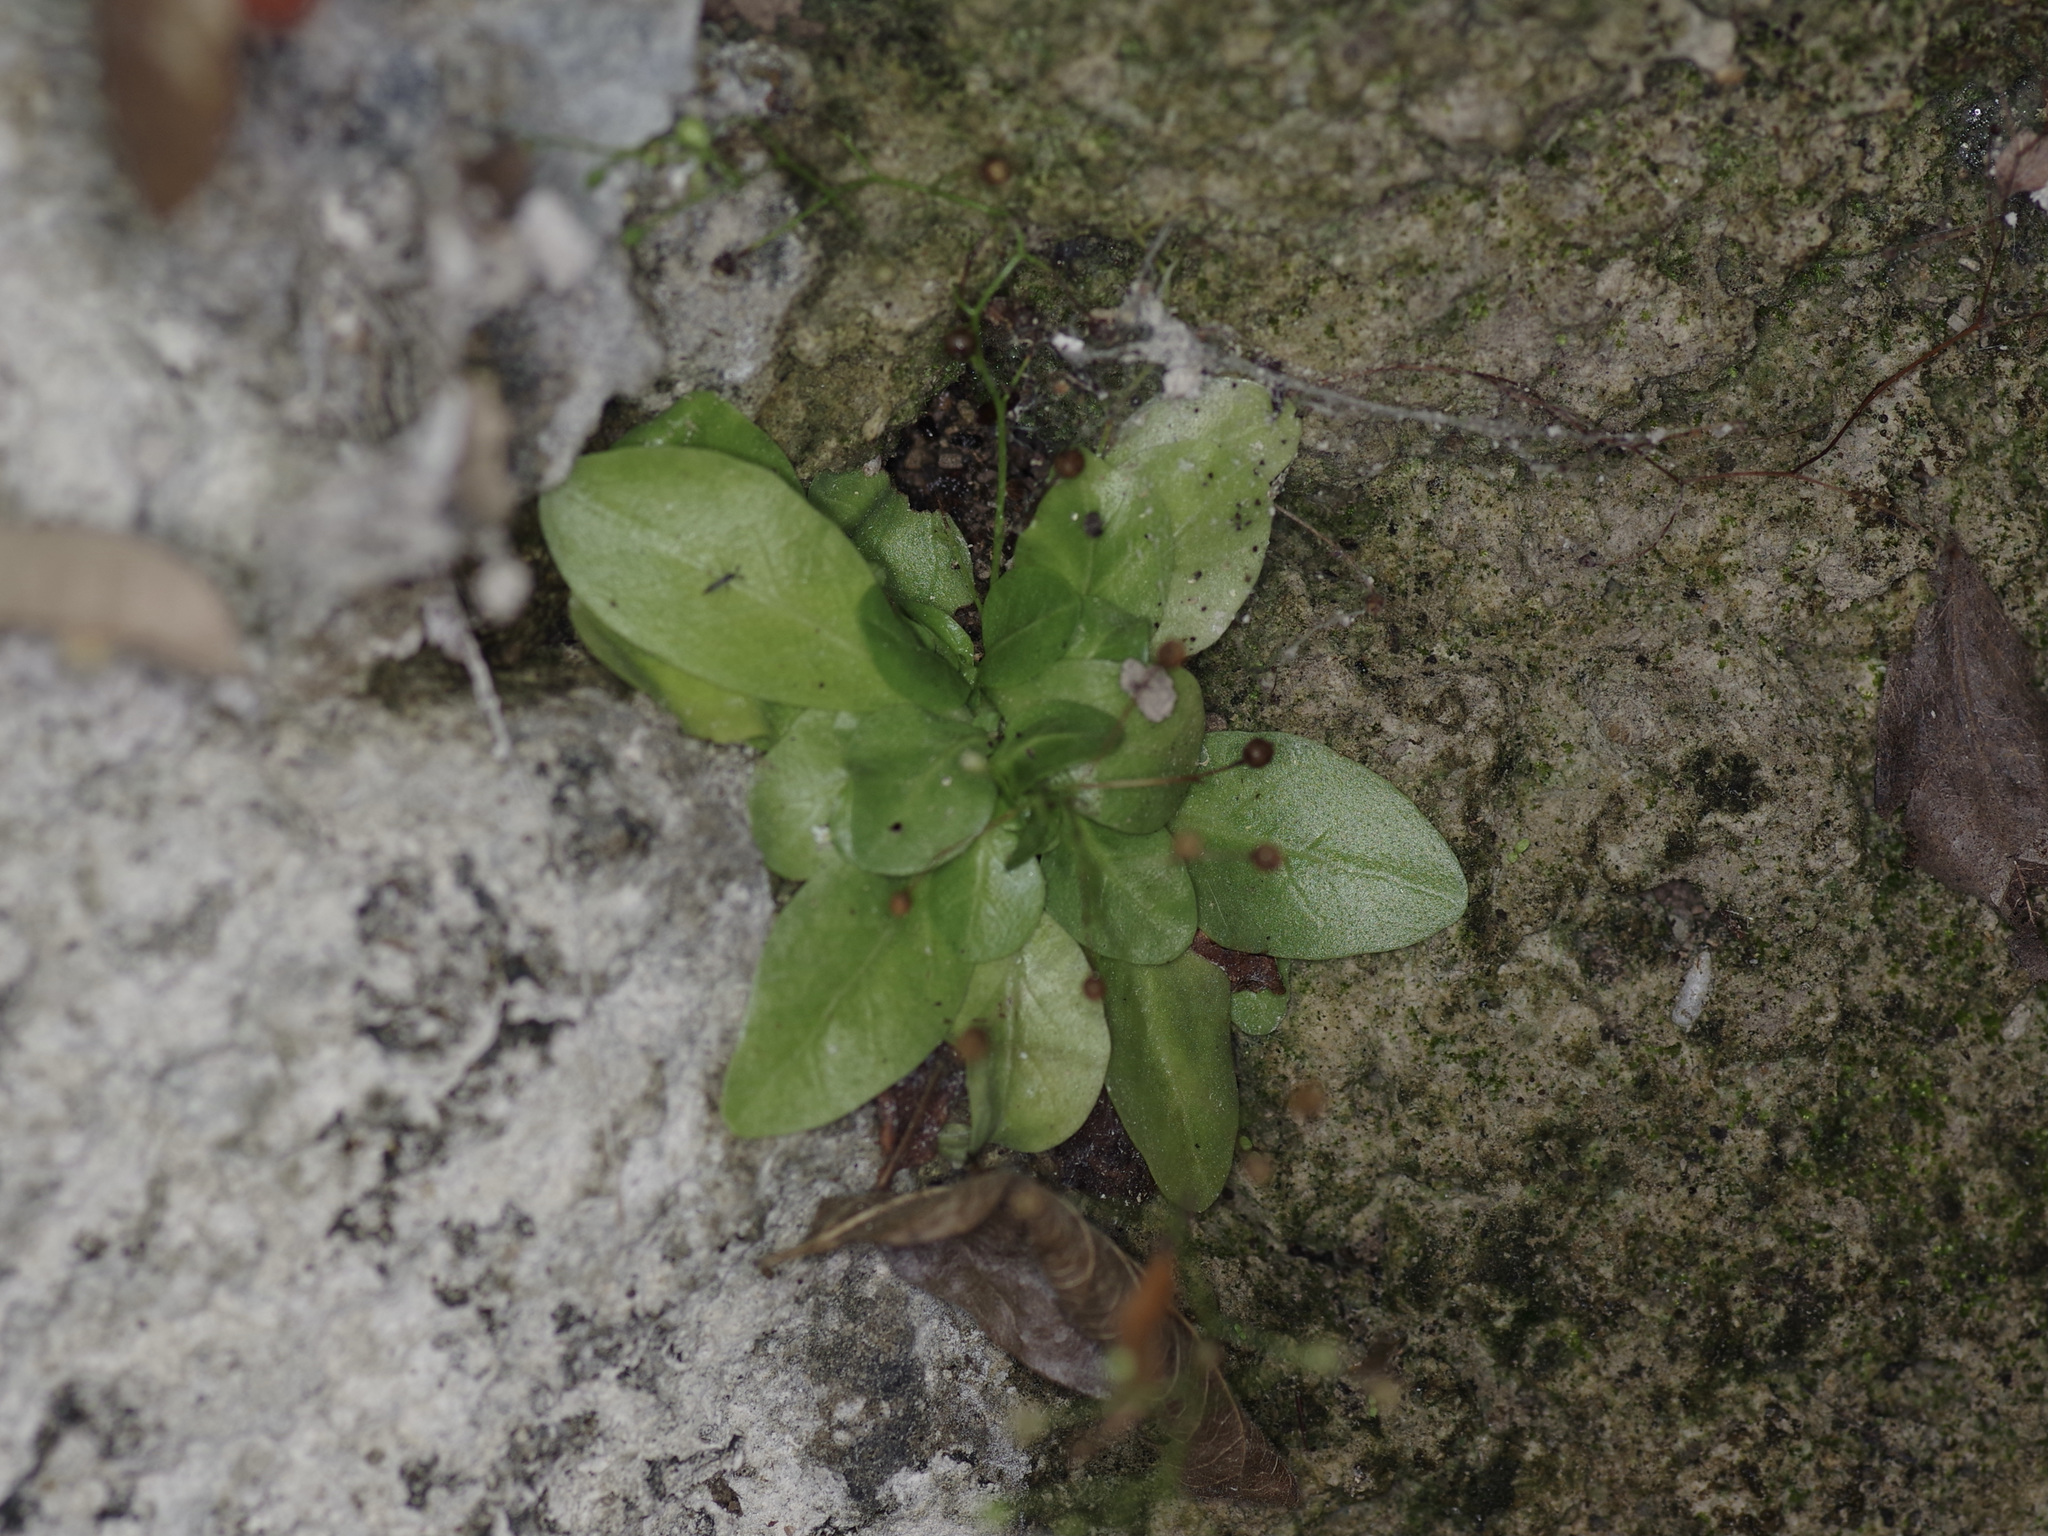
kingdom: Plantae
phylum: Tracheophyta
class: Magnoliopsida
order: Ericales
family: Primulaceae
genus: Samolus
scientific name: Samolus parviflorus
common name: False water pimpernel
